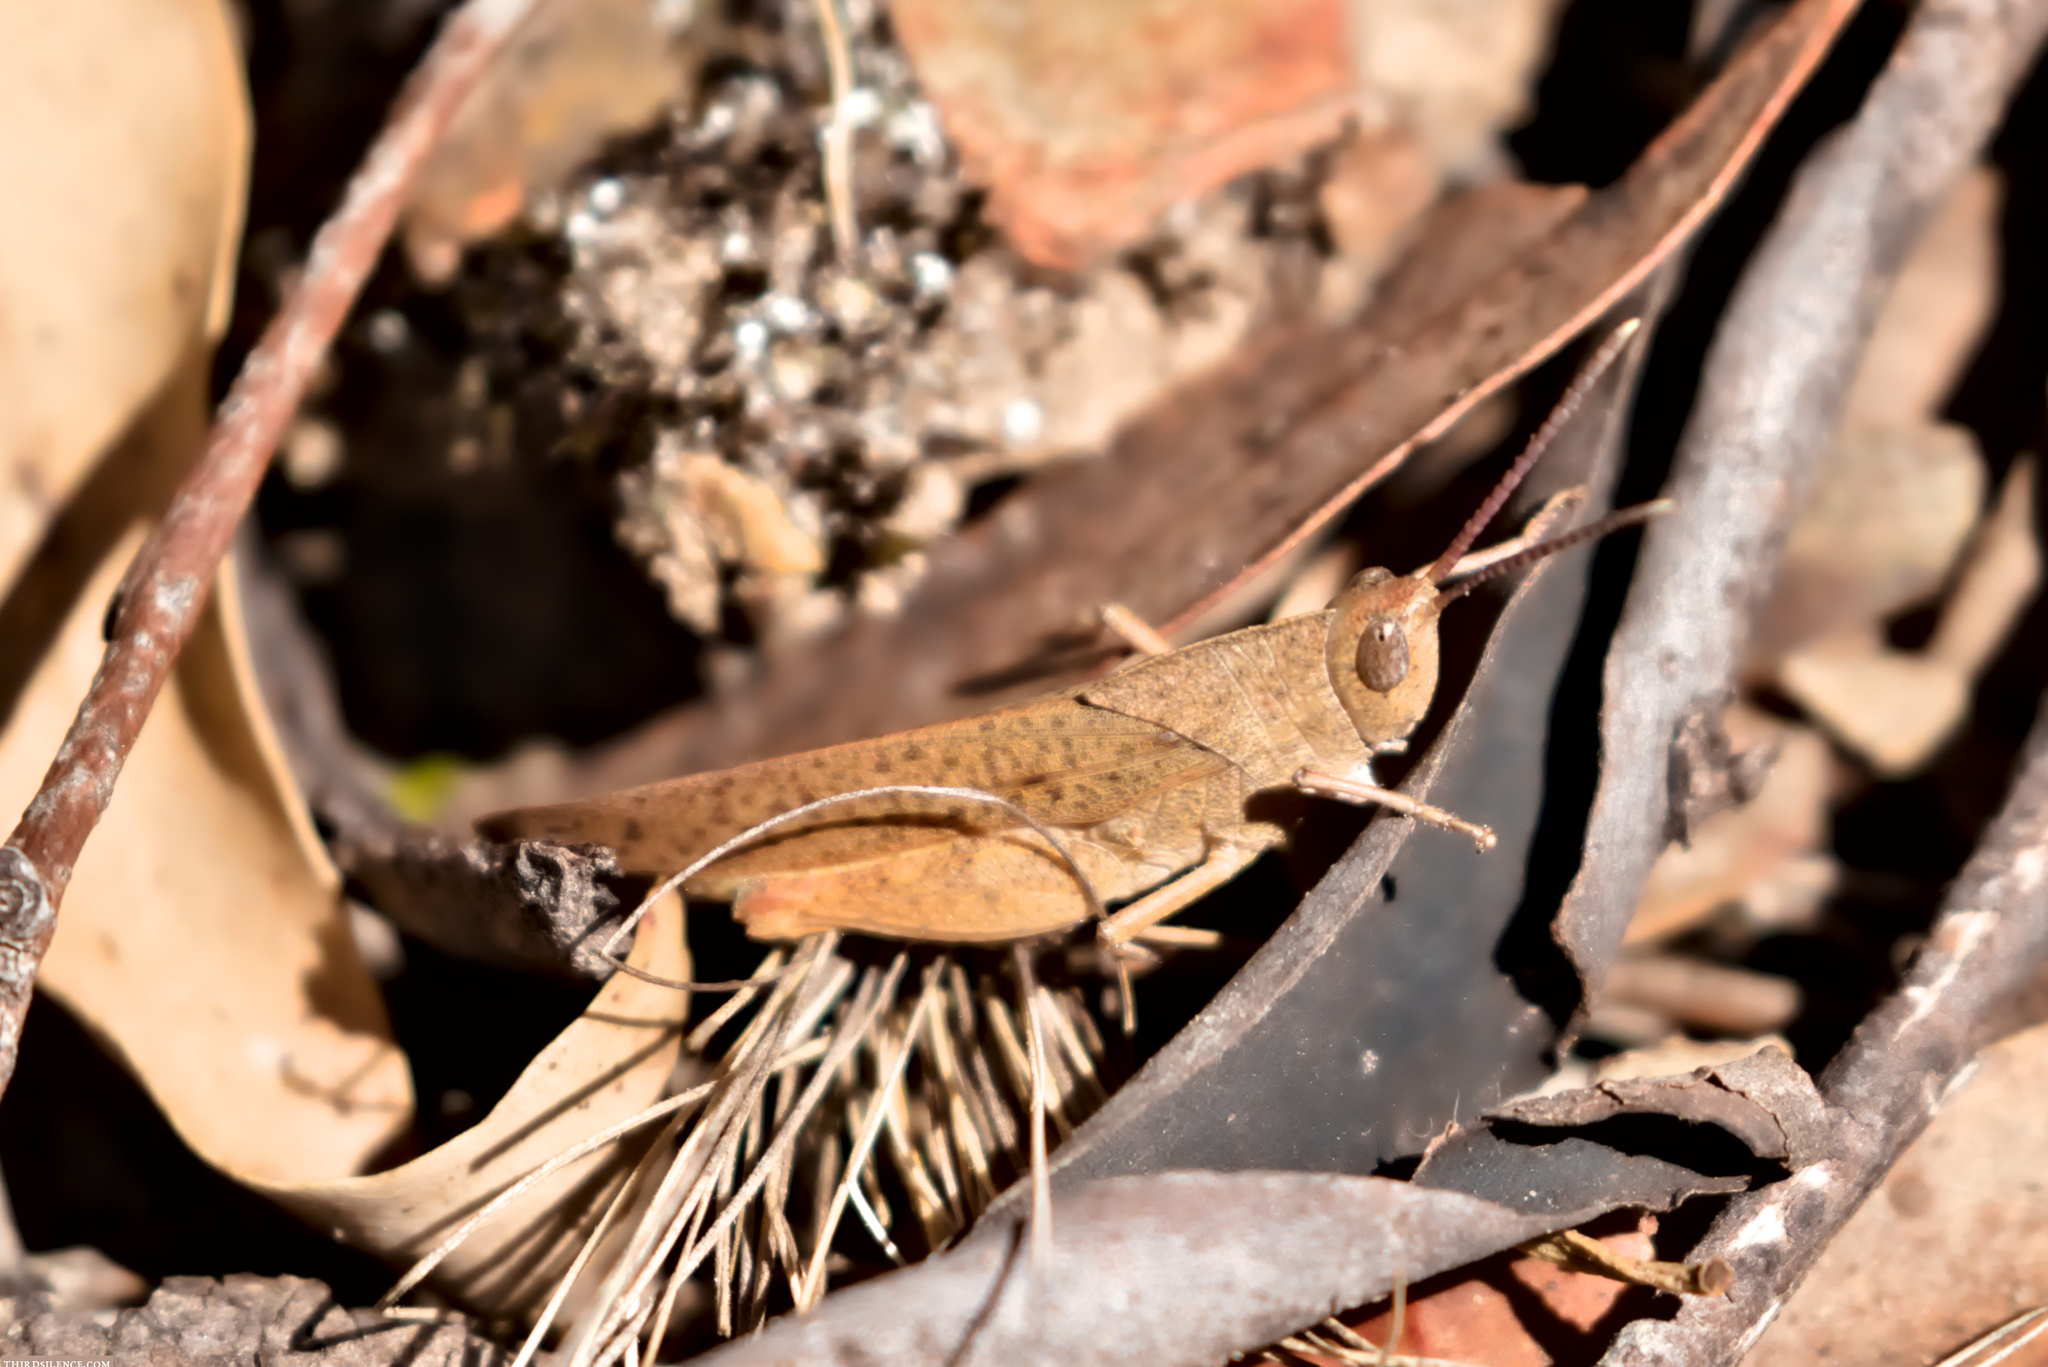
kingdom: Animalia
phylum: Arthropoda
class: Insecta
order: Orthoptera
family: Acrididae
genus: Goniaea
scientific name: Goniaea australasiae
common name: Gumleaf grasshopper
